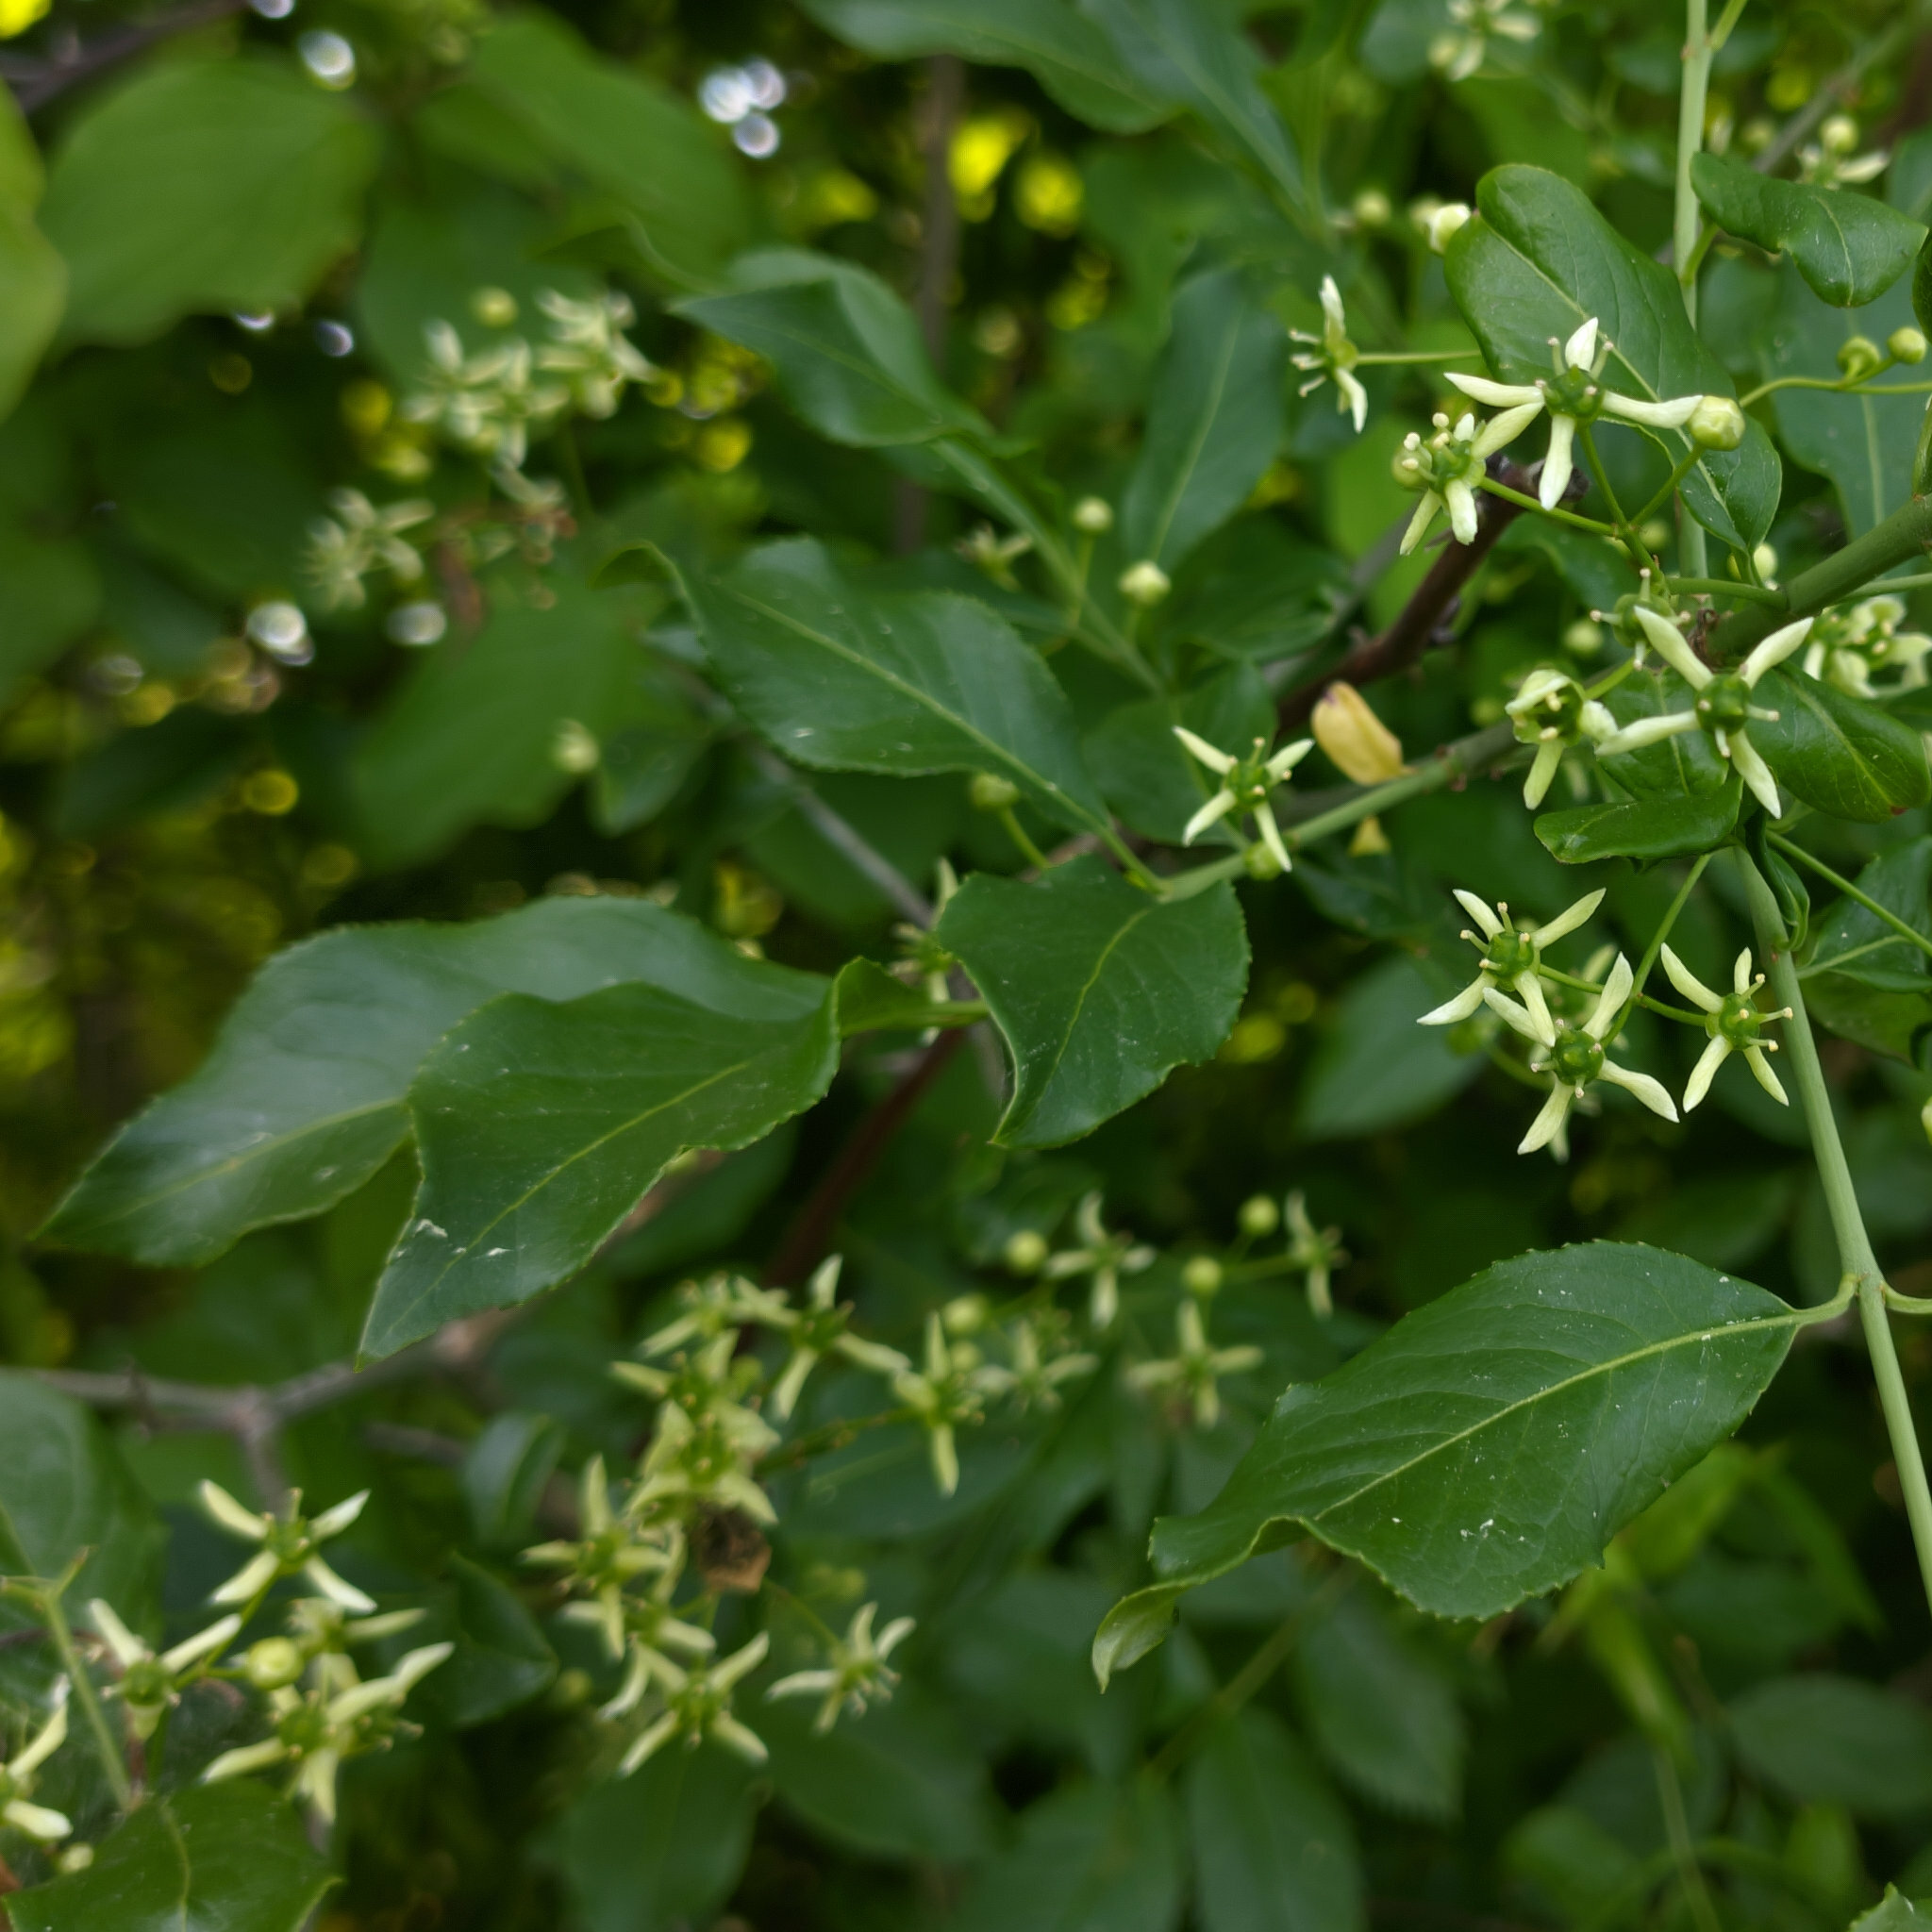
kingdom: Plantae
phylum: Tracheophyta
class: Magnoliopsida
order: Celastrales
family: Celastraceae
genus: Euonymus
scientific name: Euonymus europaeus
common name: Spindle
